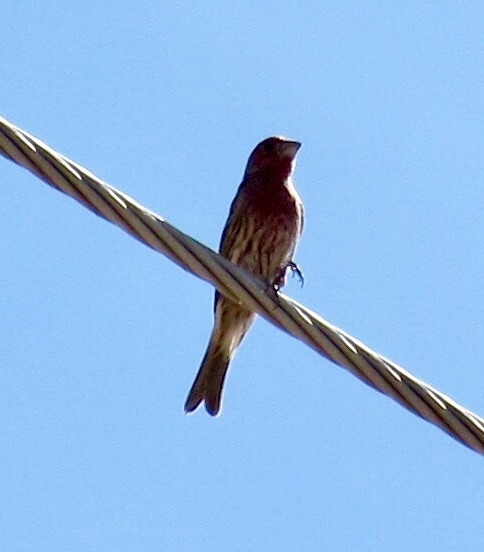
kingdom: Animalia
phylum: Chordata
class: Aves
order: Passeriformes
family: Fringillidae
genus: Haemorhous
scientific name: Haemorhous mexicanus
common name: House finch
